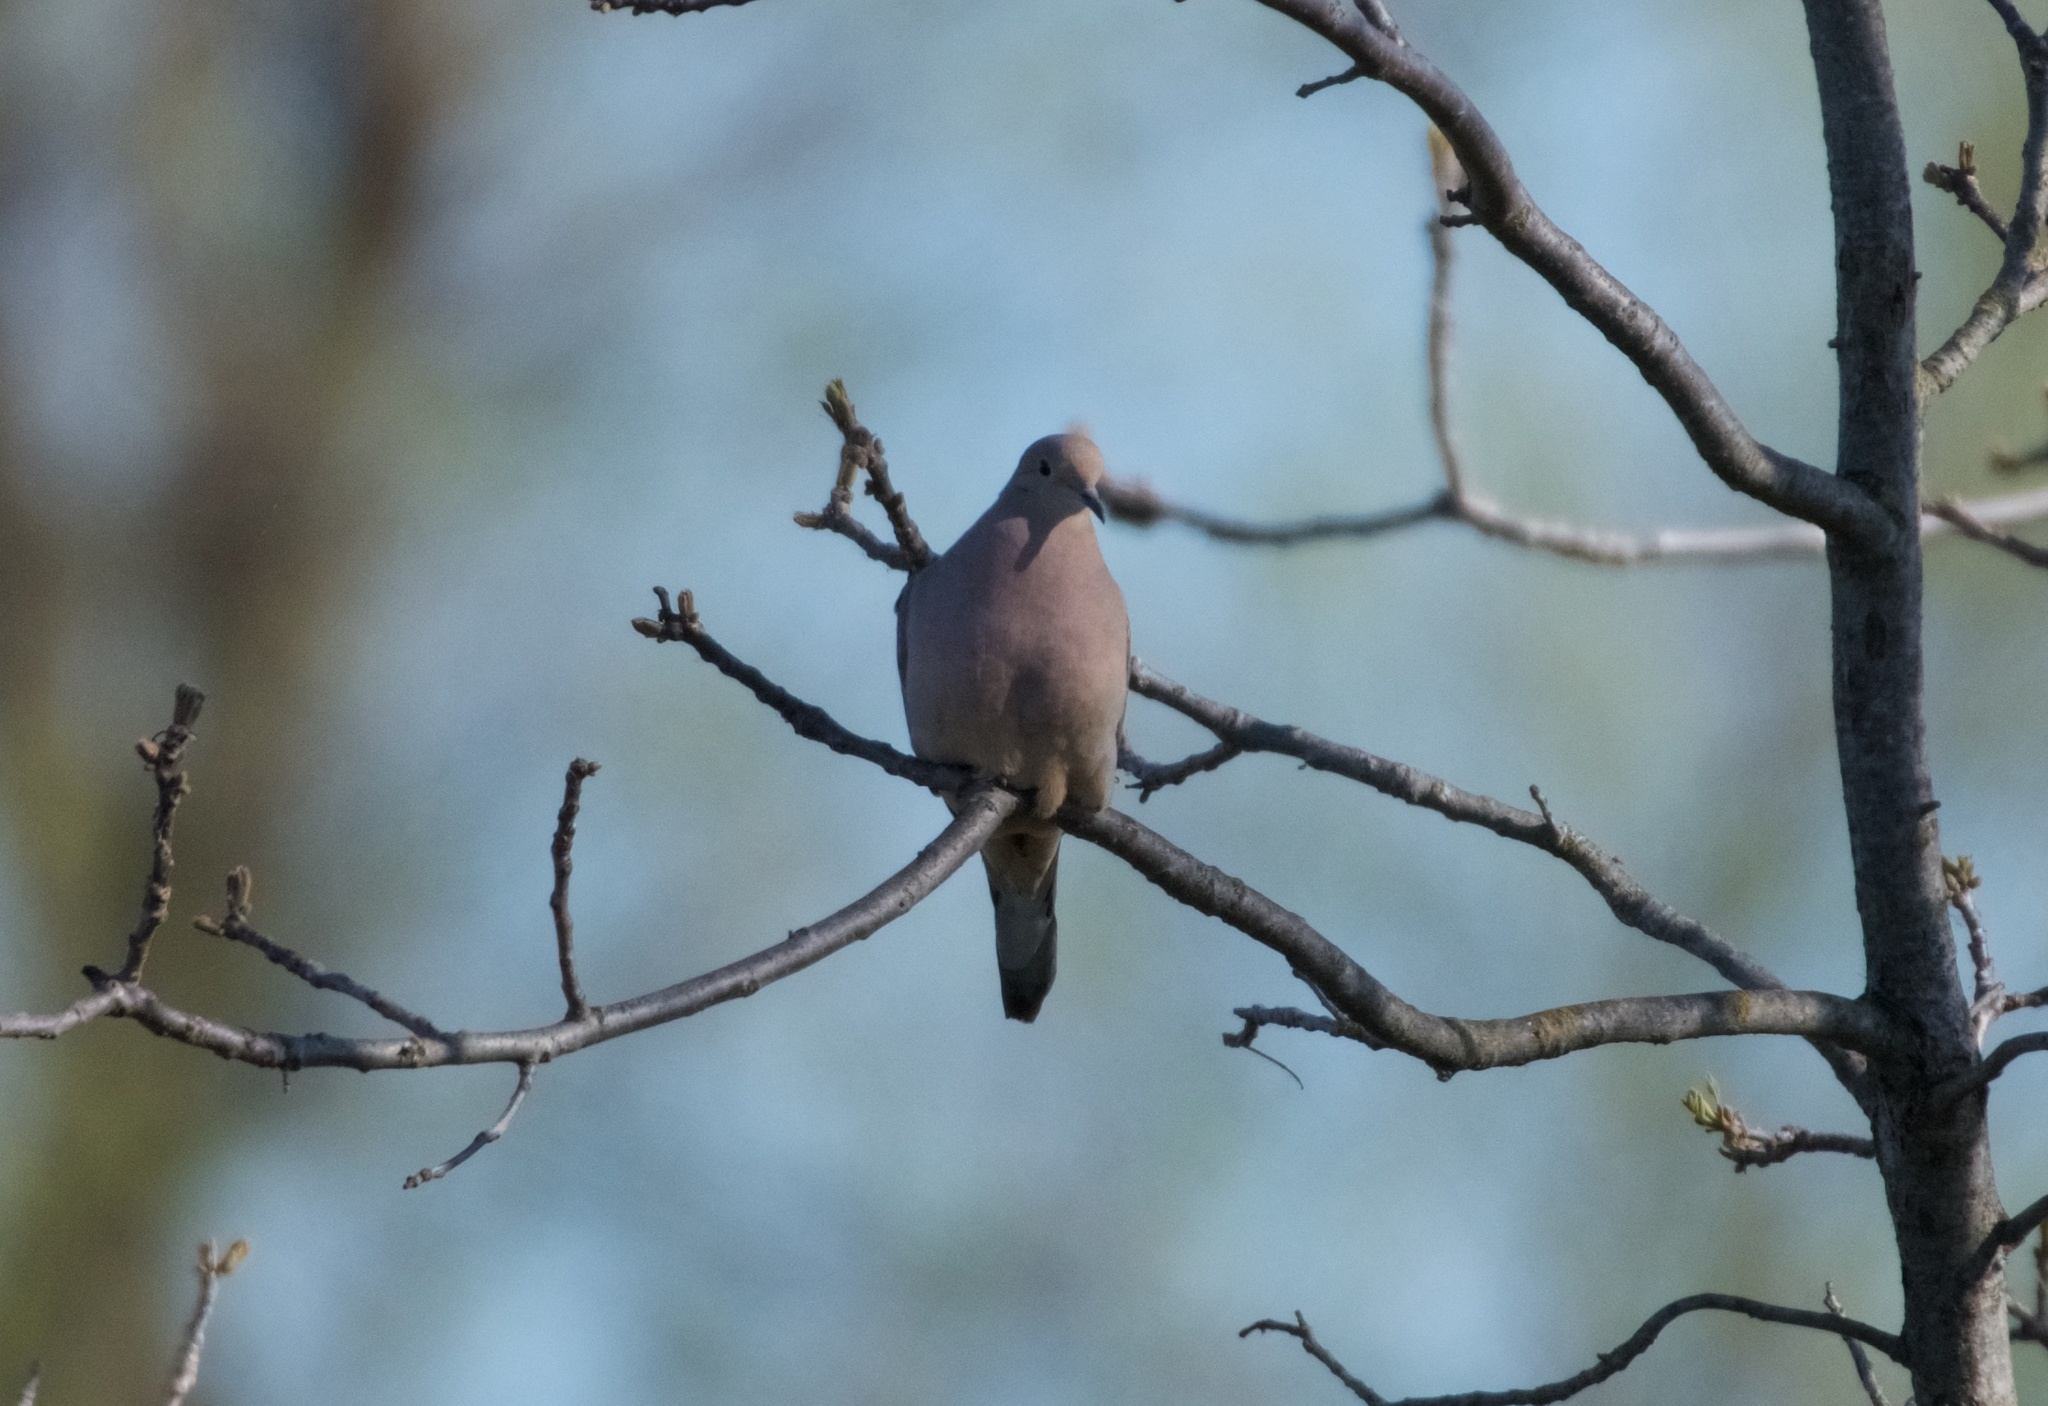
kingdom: Animalia
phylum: Chordata
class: Aves
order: Columbiformes
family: Columbidae
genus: Zenaida
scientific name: Zenaida macroura
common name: Mourning dove
